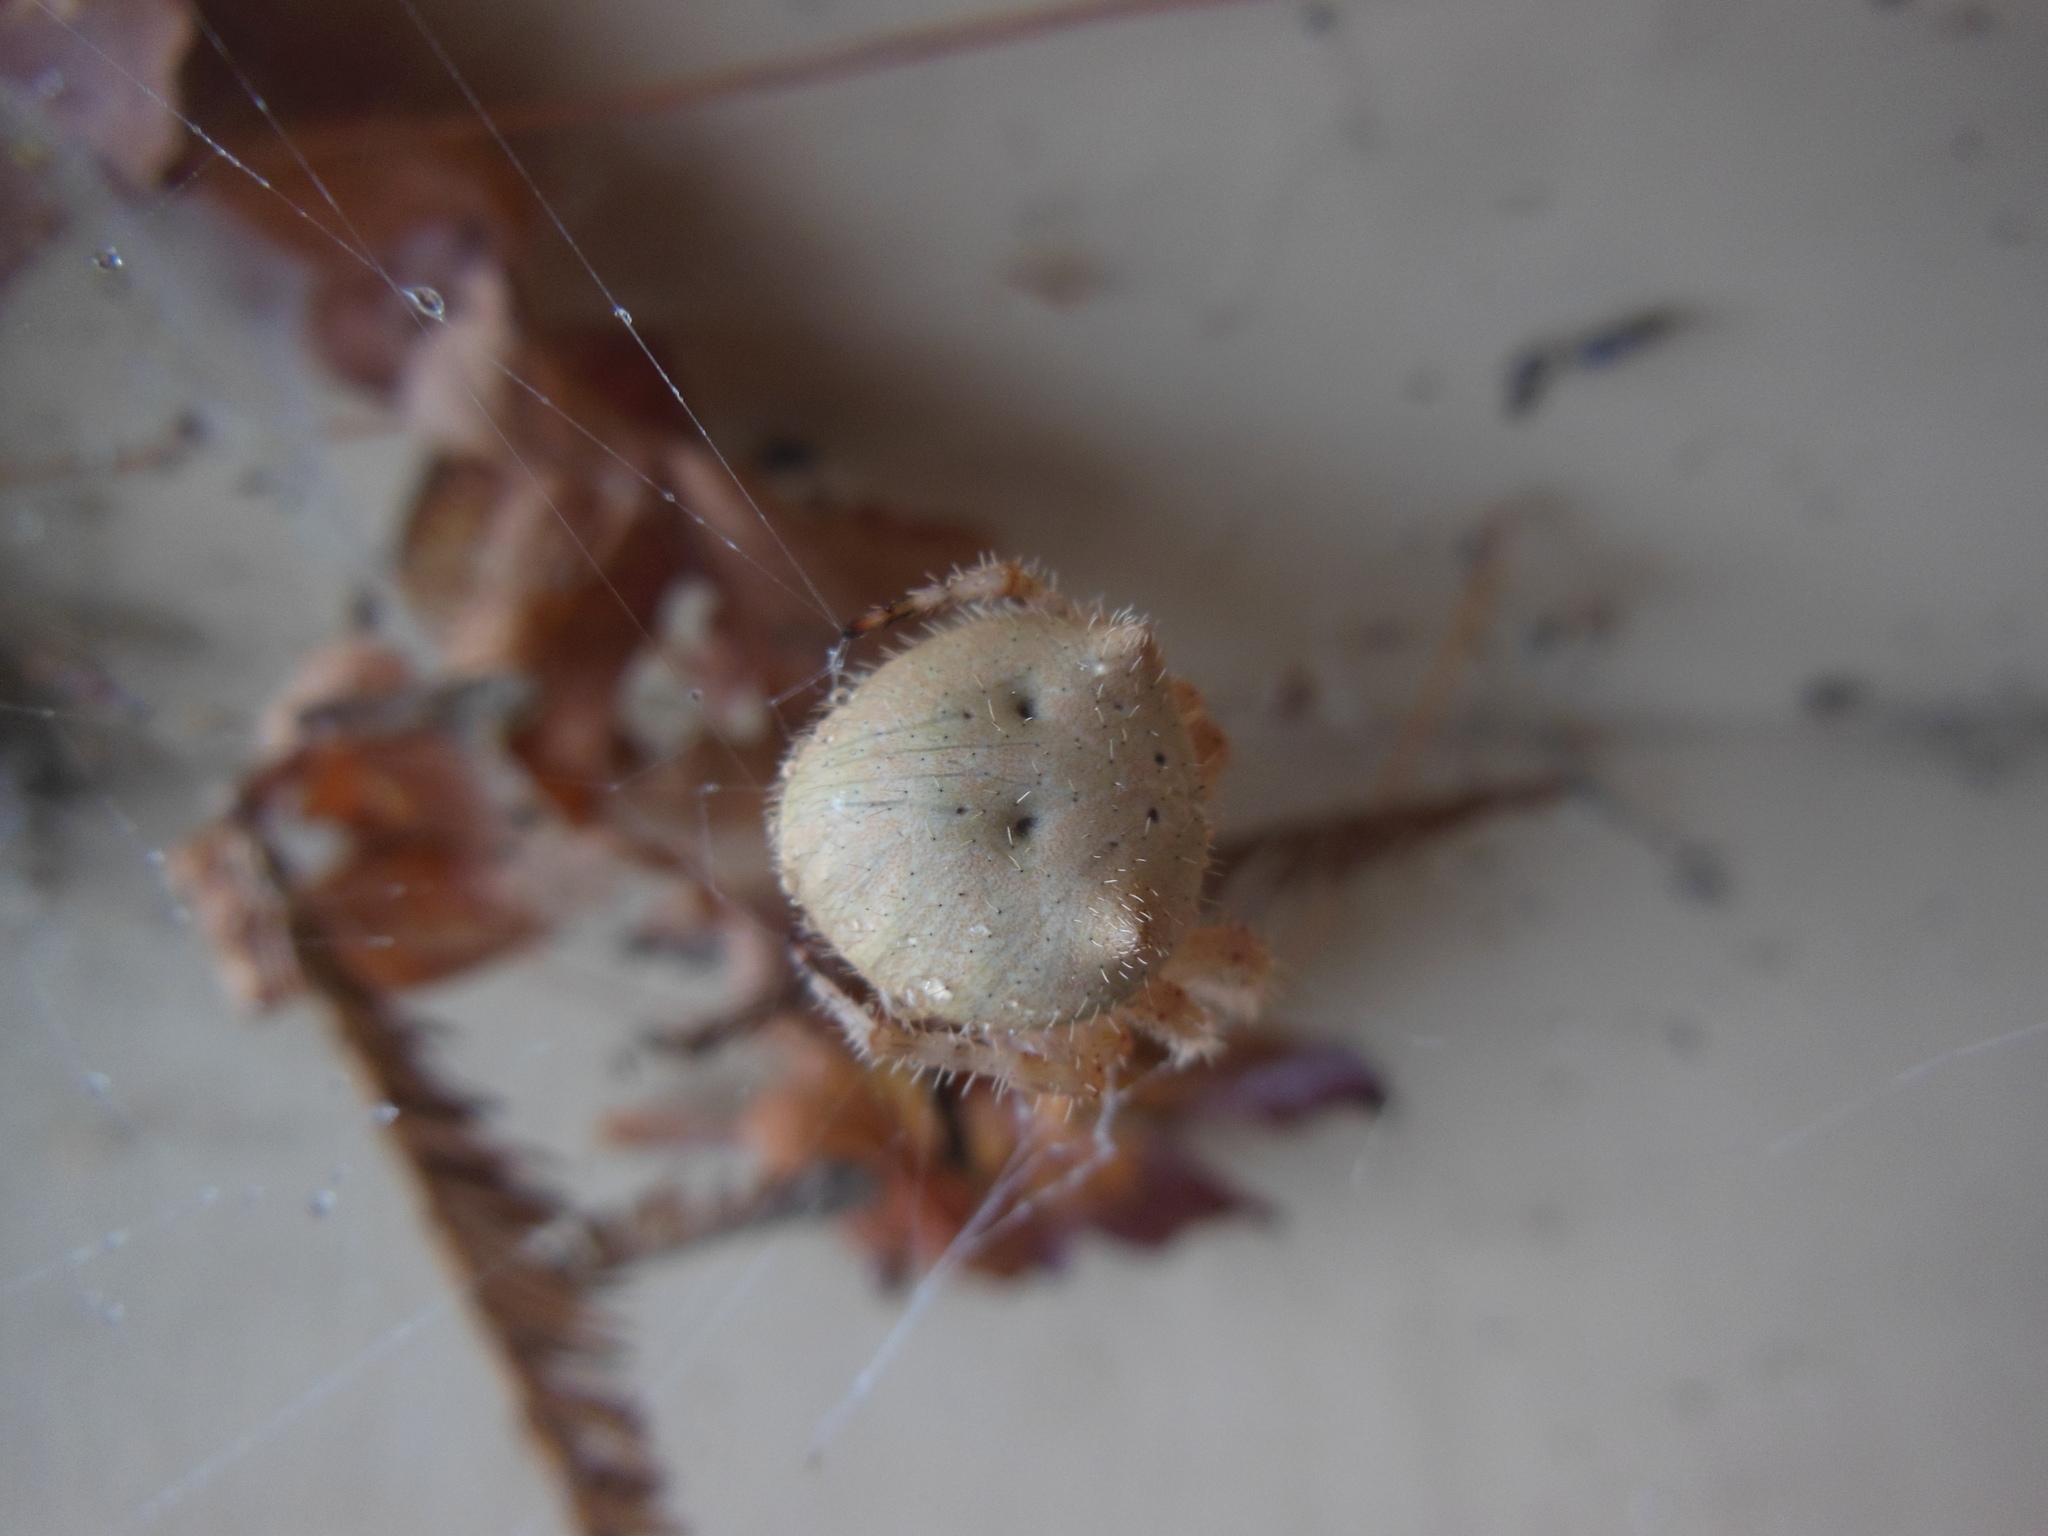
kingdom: Animalia
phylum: Arthropoda
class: Arachnida
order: Araneae
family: Araneidae
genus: Araneus
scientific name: Araneus gemma
